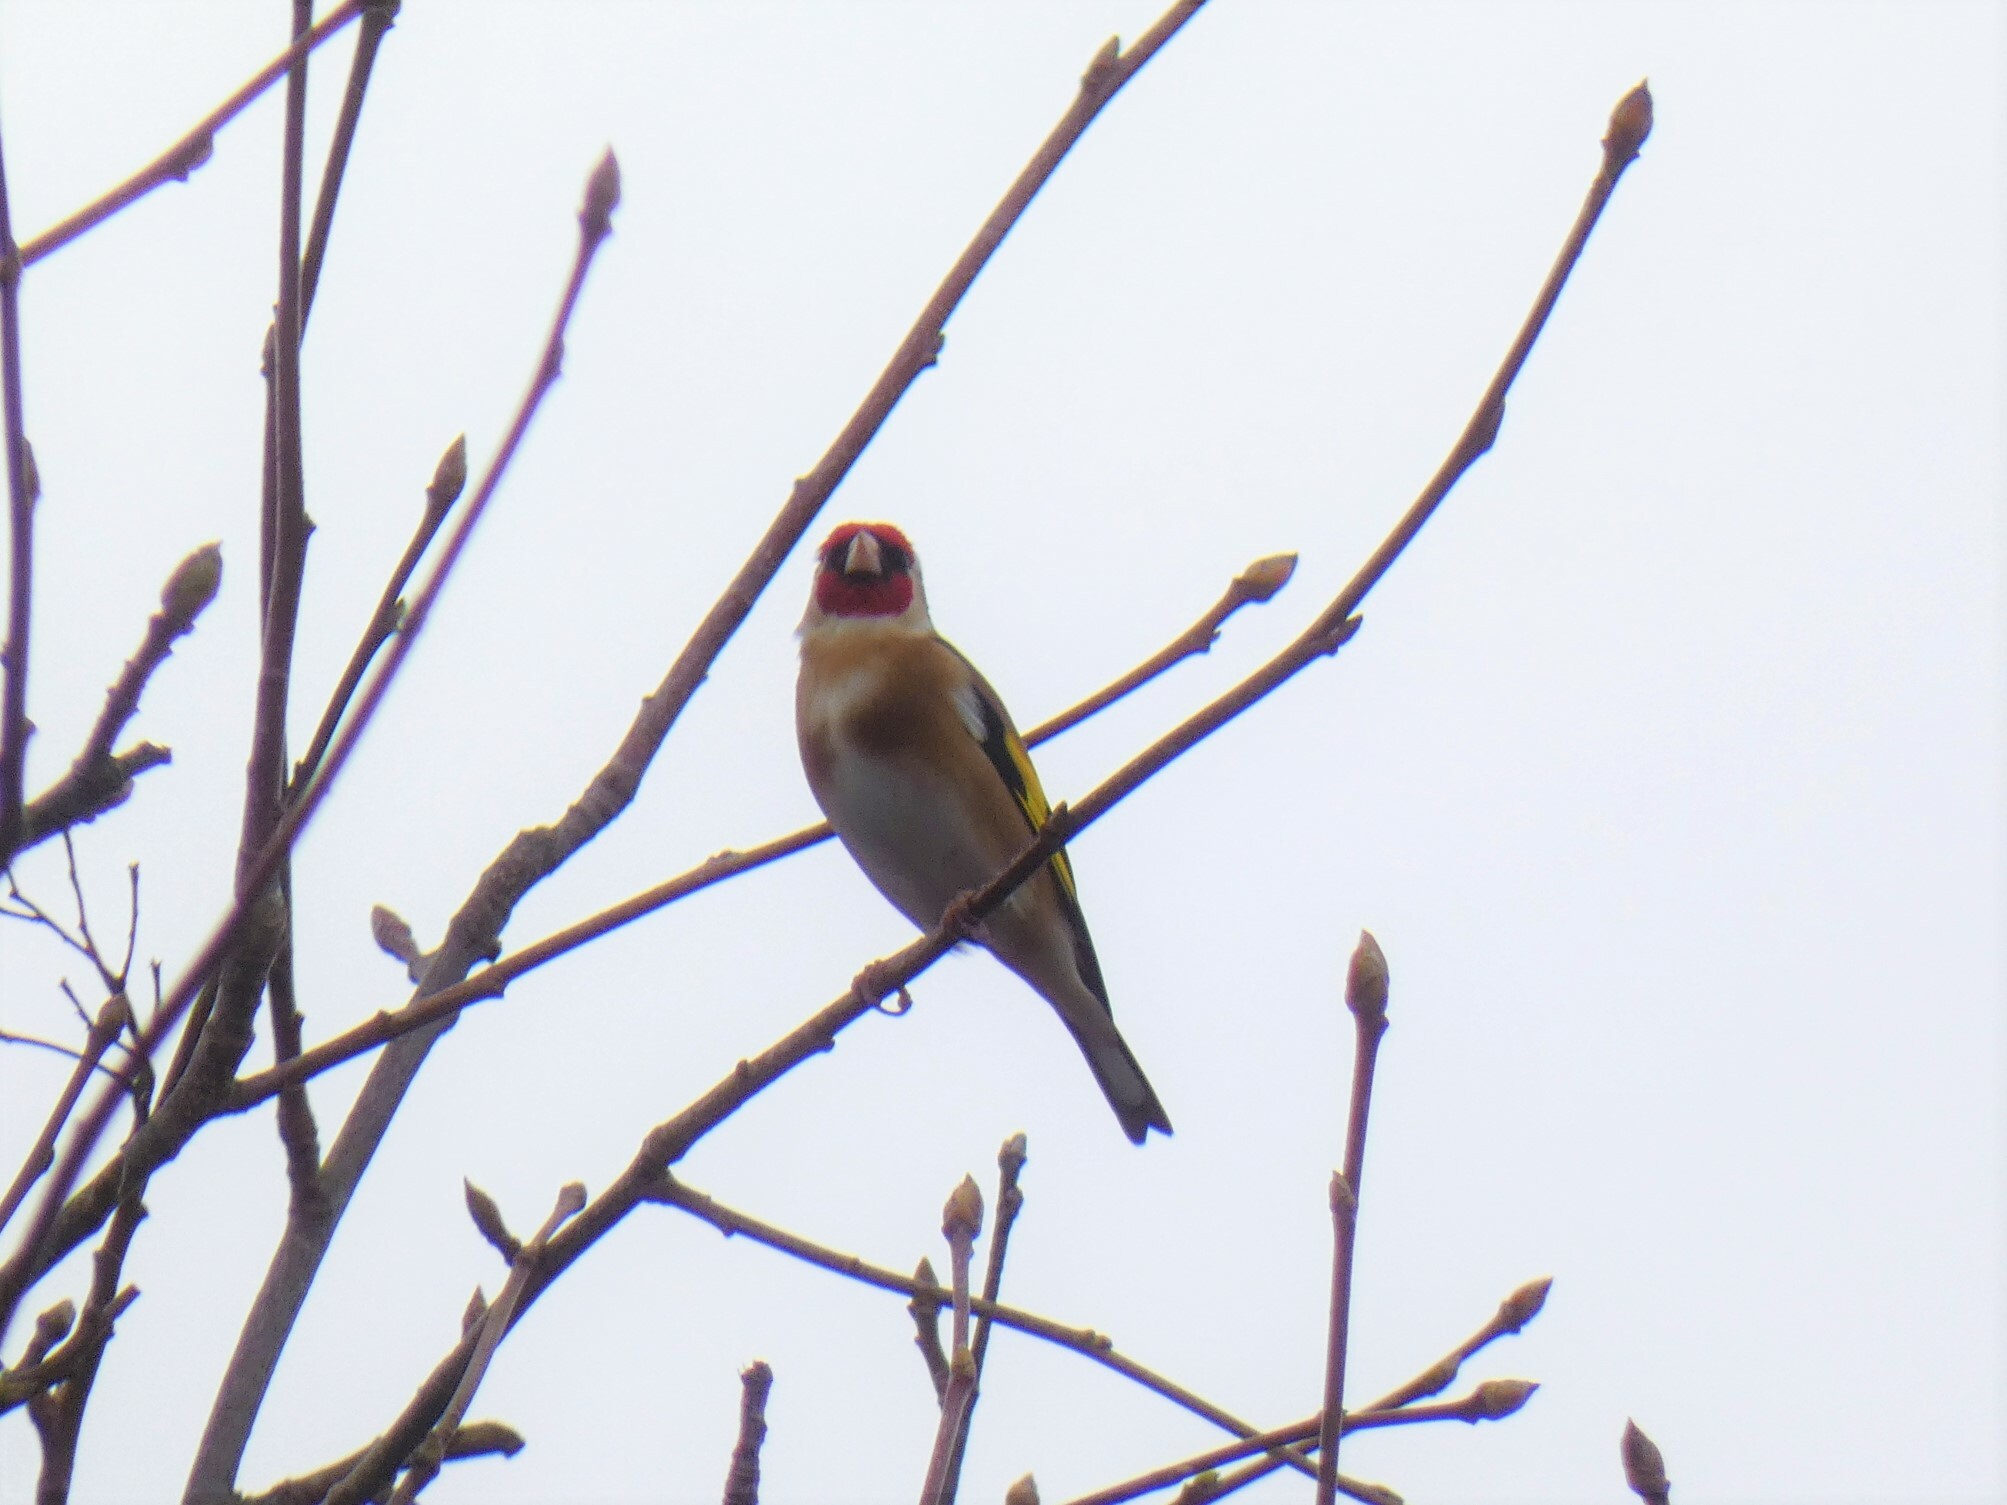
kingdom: Animalia
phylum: Chordata
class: Aves
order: Passeriformes
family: Fringillidae
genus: Carduelis
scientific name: Carduelis carduelis
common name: European goldfinch
